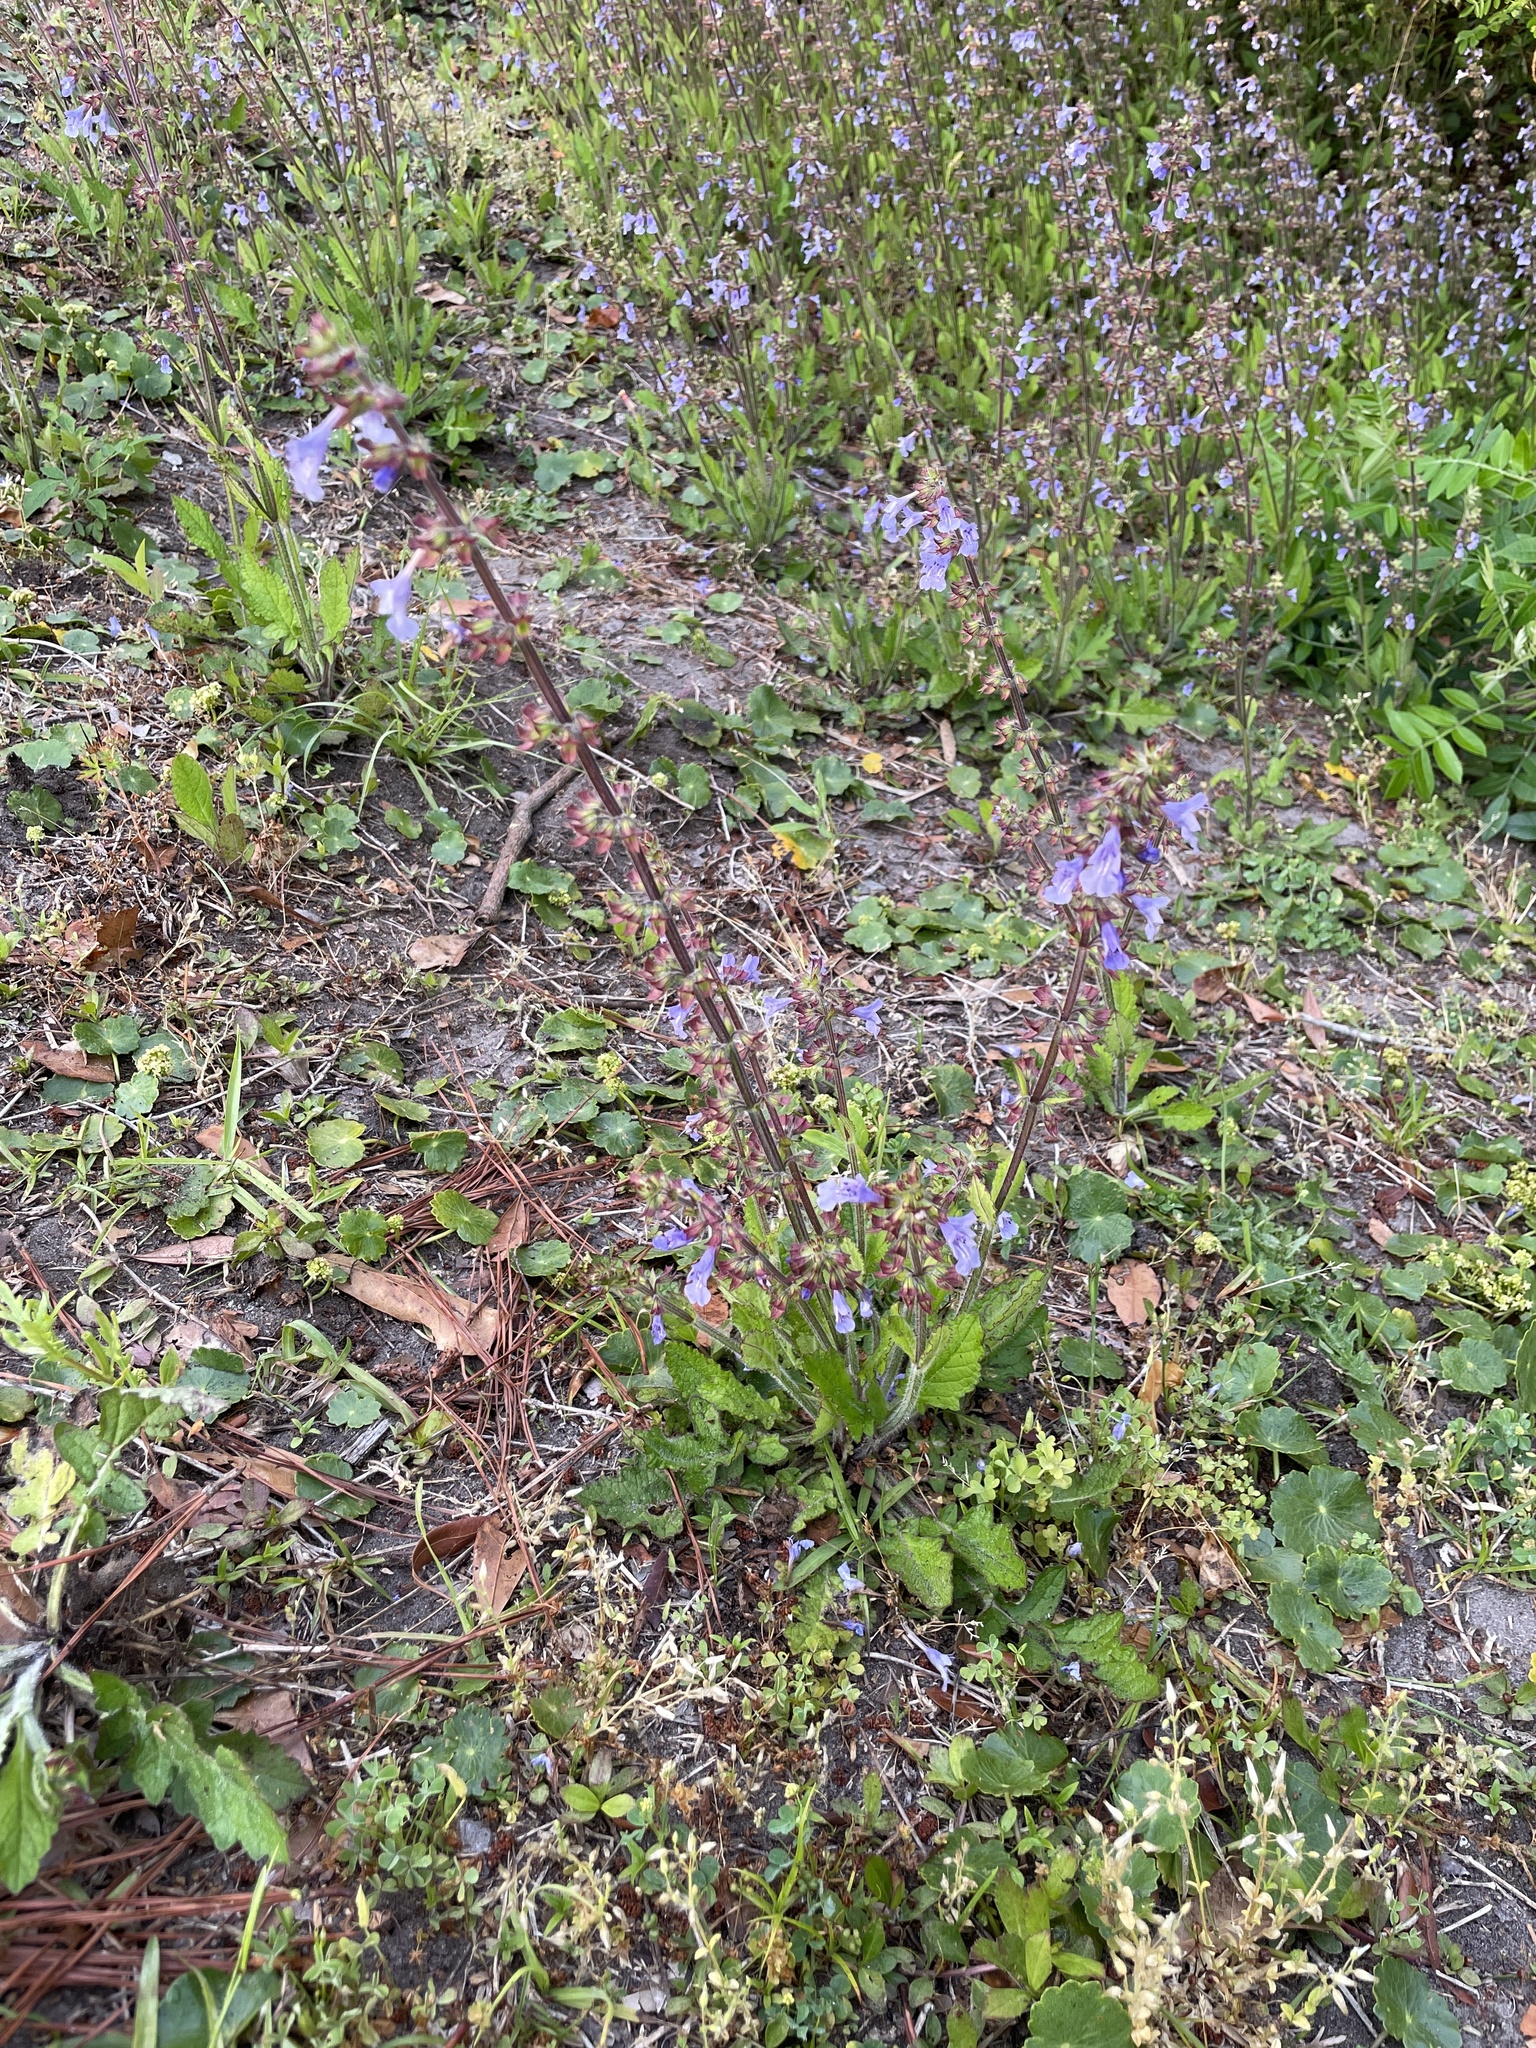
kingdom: Plantae
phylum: Tracheophyta
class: Magnoliopsida
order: Lamiales
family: Lamiaceae
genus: Salvia
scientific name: Salvia lyrata
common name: Cancerweed
